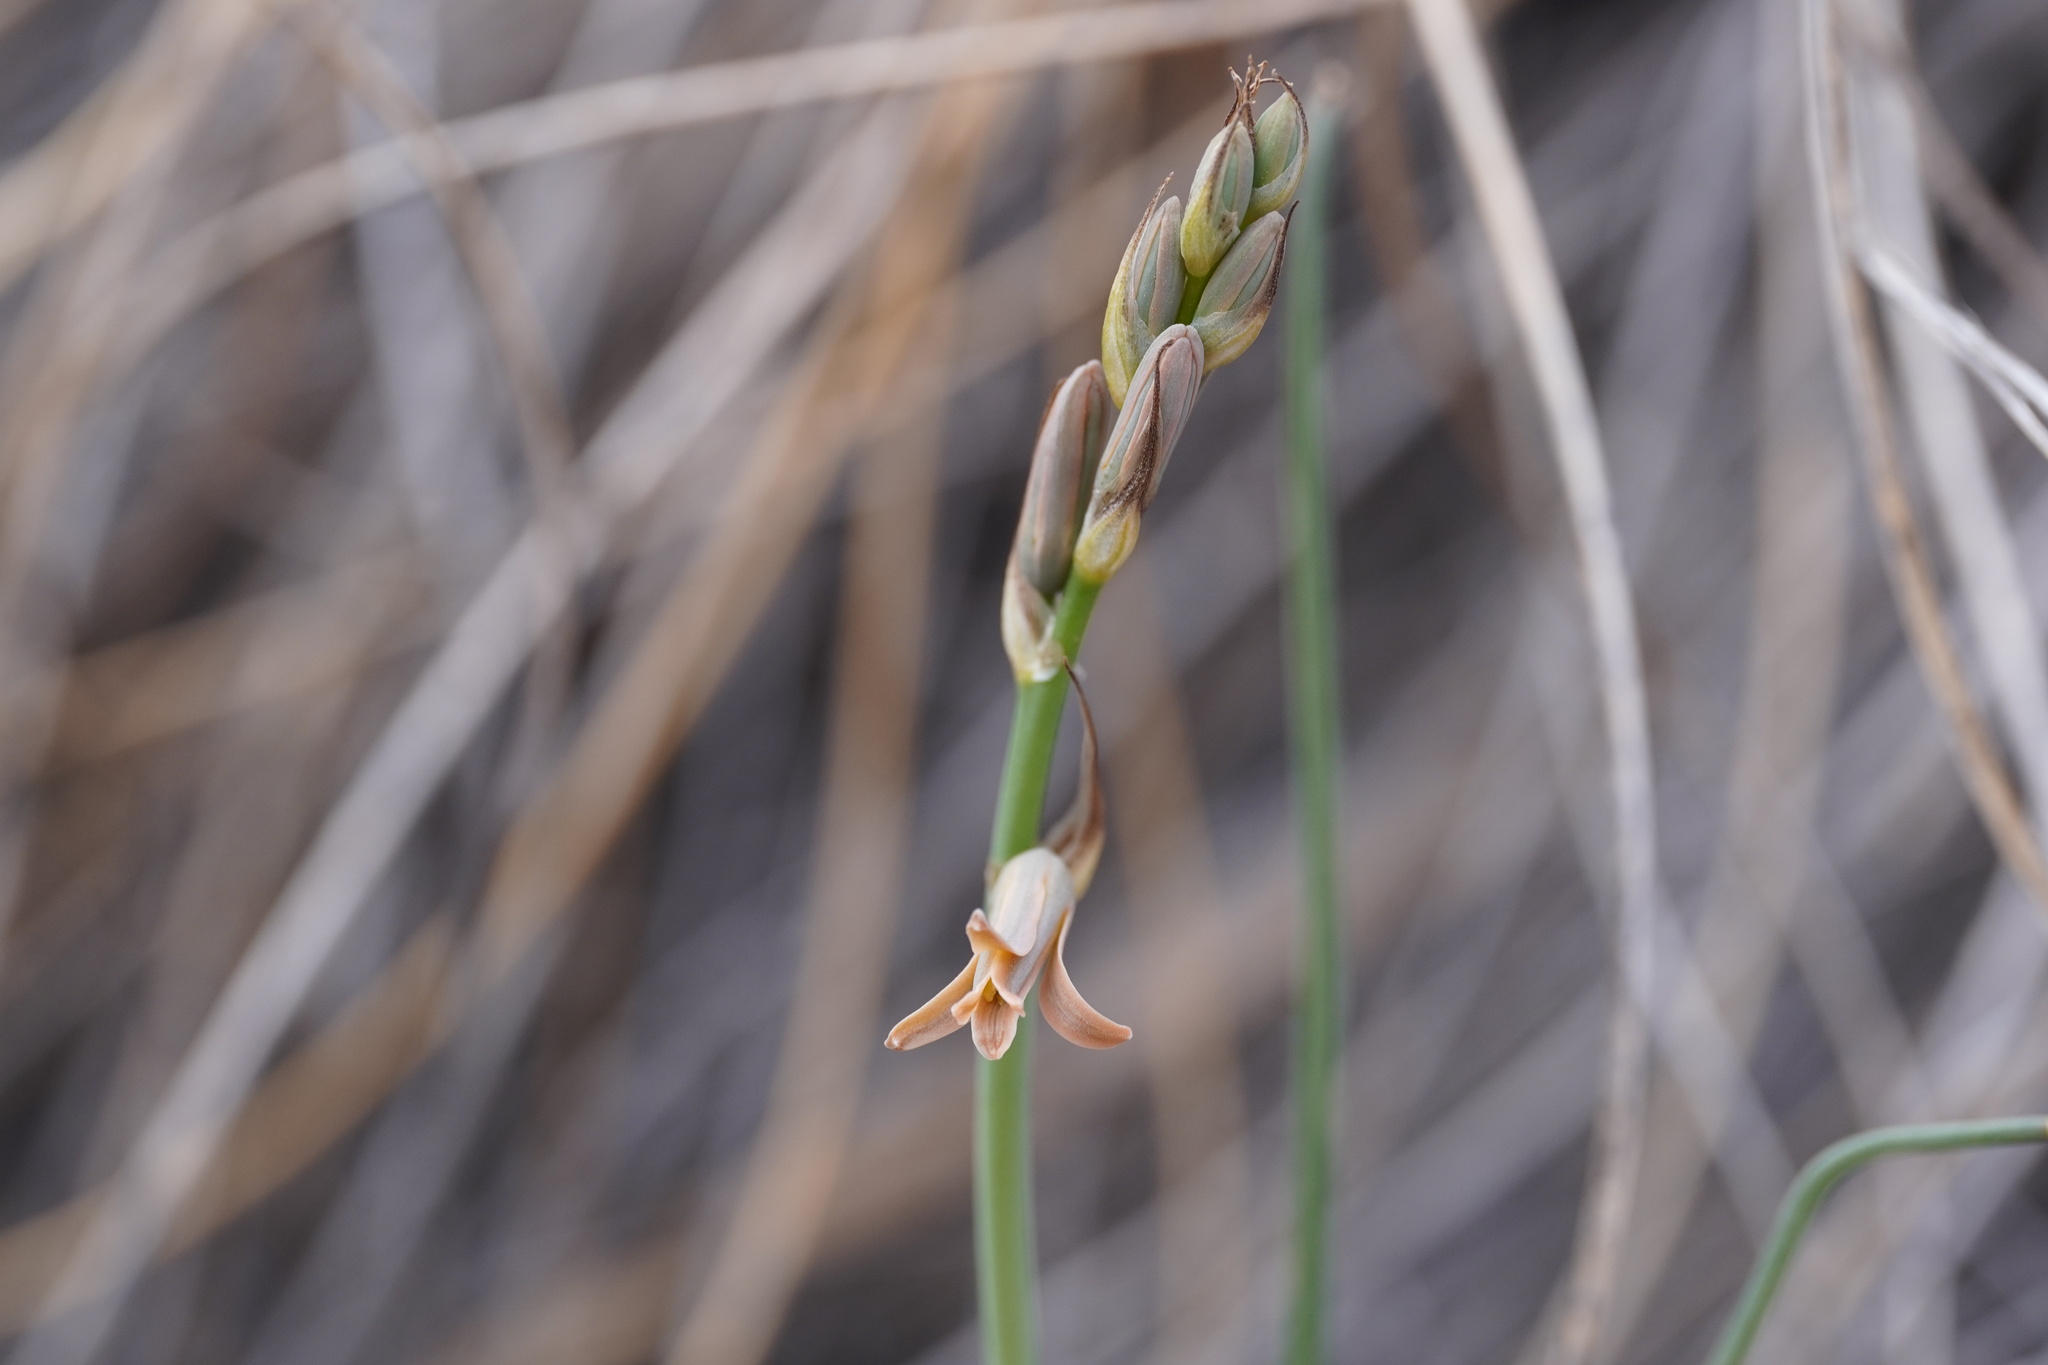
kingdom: Plantae
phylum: Tracheophyta
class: Liliopsida
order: Asparagales
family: Asparagaceae
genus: Dipcadi
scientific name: Dipcadi serotinum
